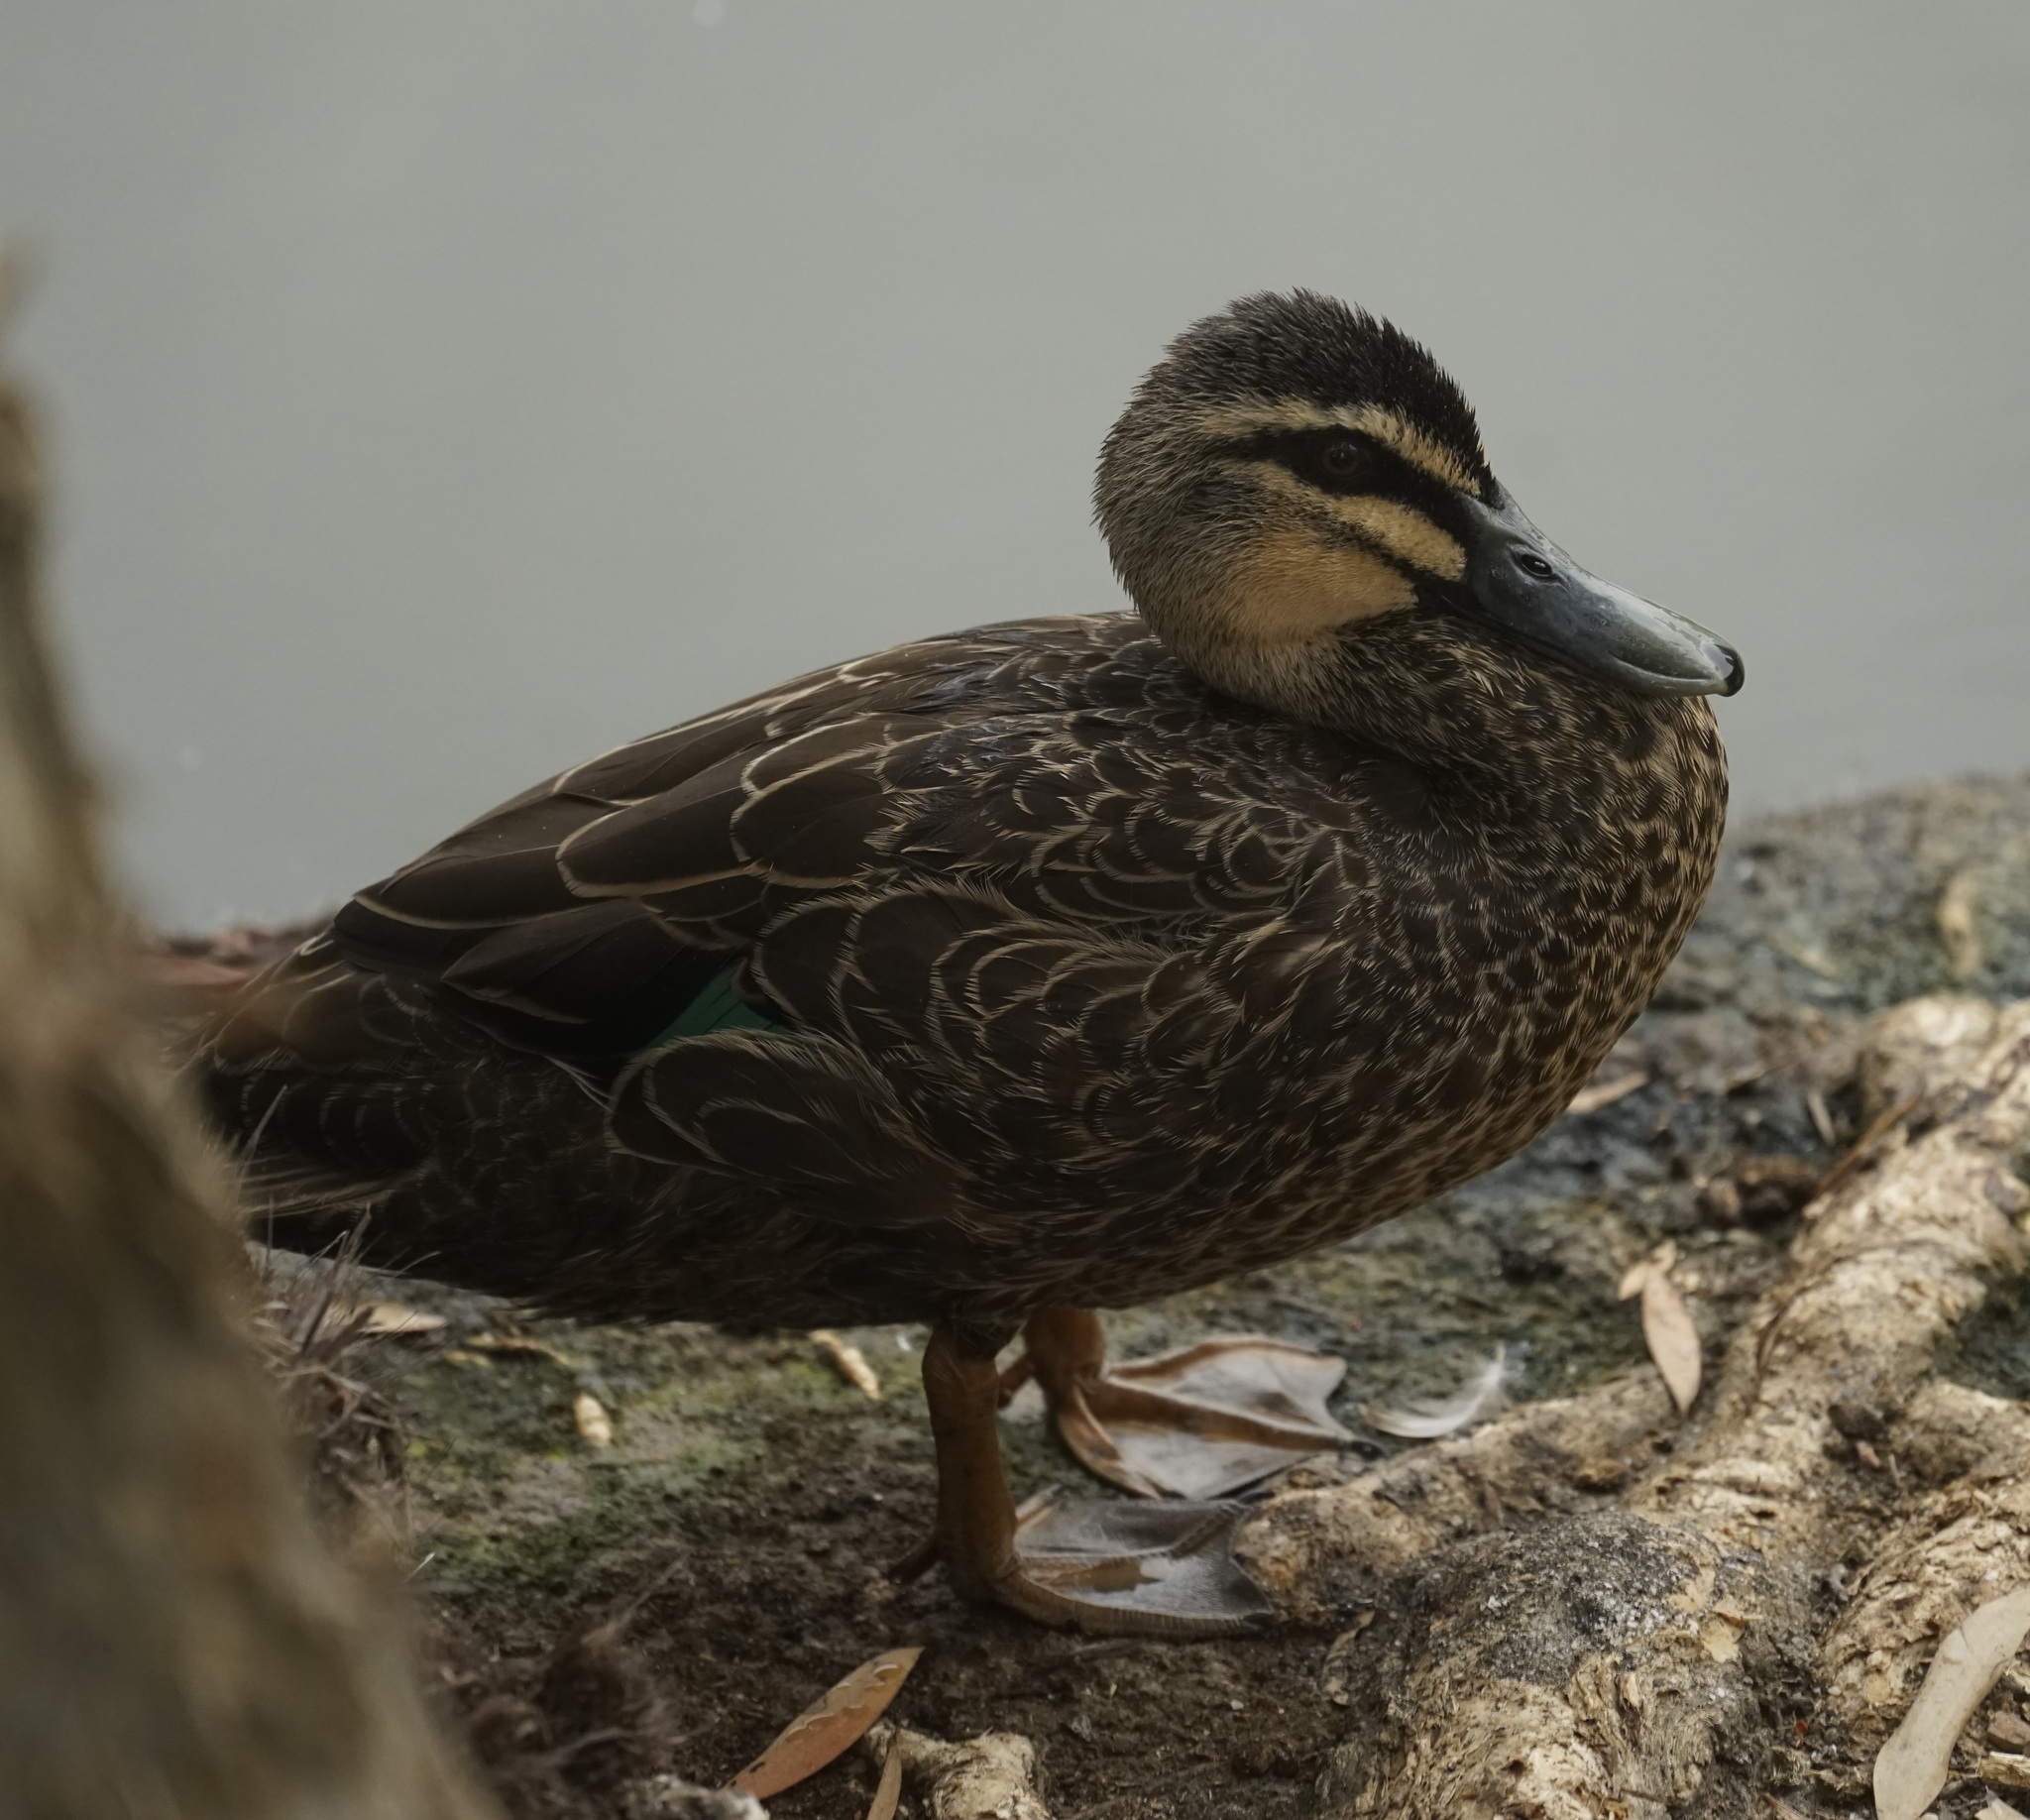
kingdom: Animalia
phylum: Chordata
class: Aves
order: Anseriformes
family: Anatidae
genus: Anas
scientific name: Anas superciliosa
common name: Pacific black duck
